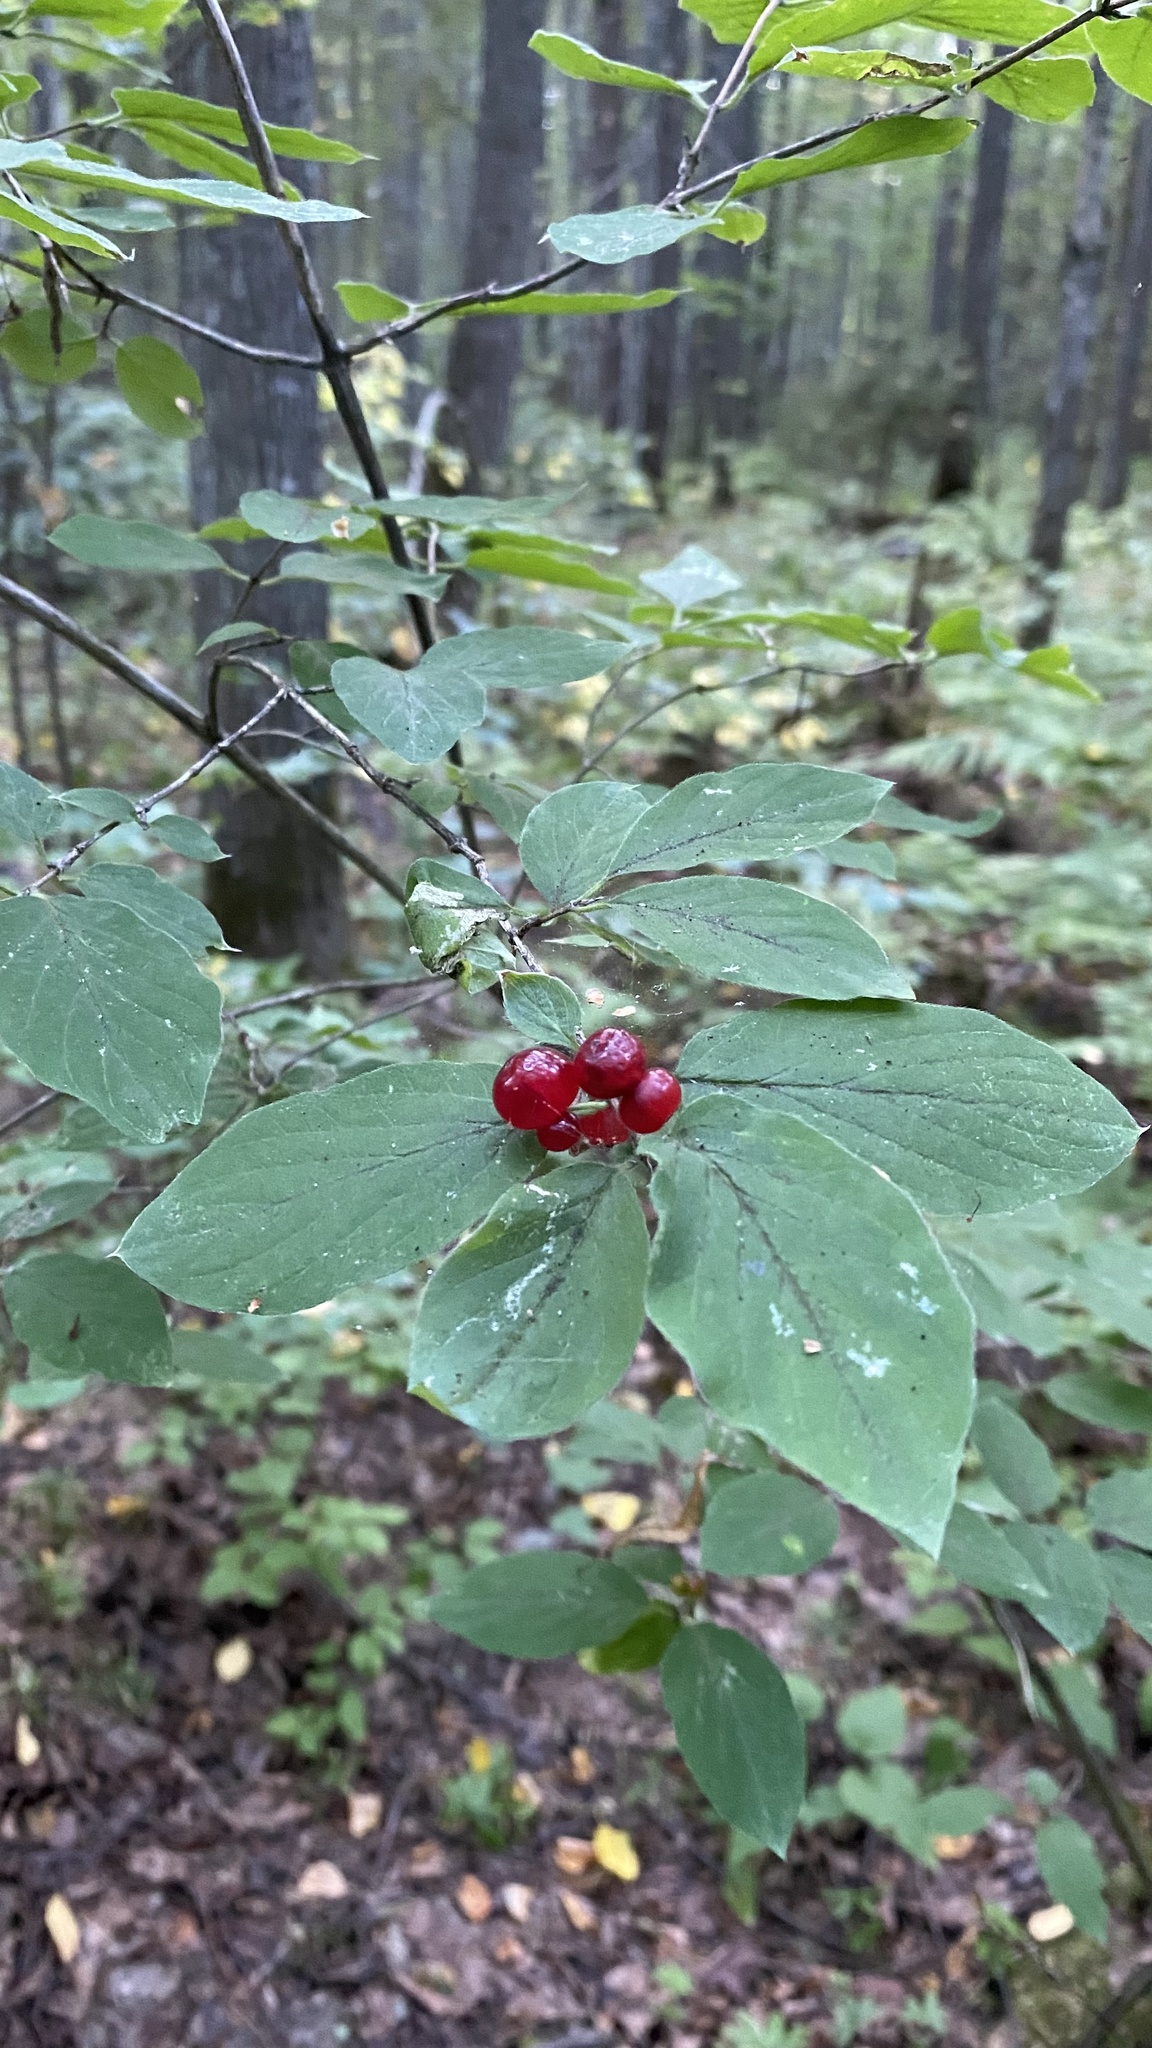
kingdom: Plantae
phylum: Tracheophyta
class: Magnoliopsida
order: Dipsacales
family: Caprifoliaceae
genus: Lonicera
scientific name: Lonicera xylosteum
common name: Fly honeysuckle
